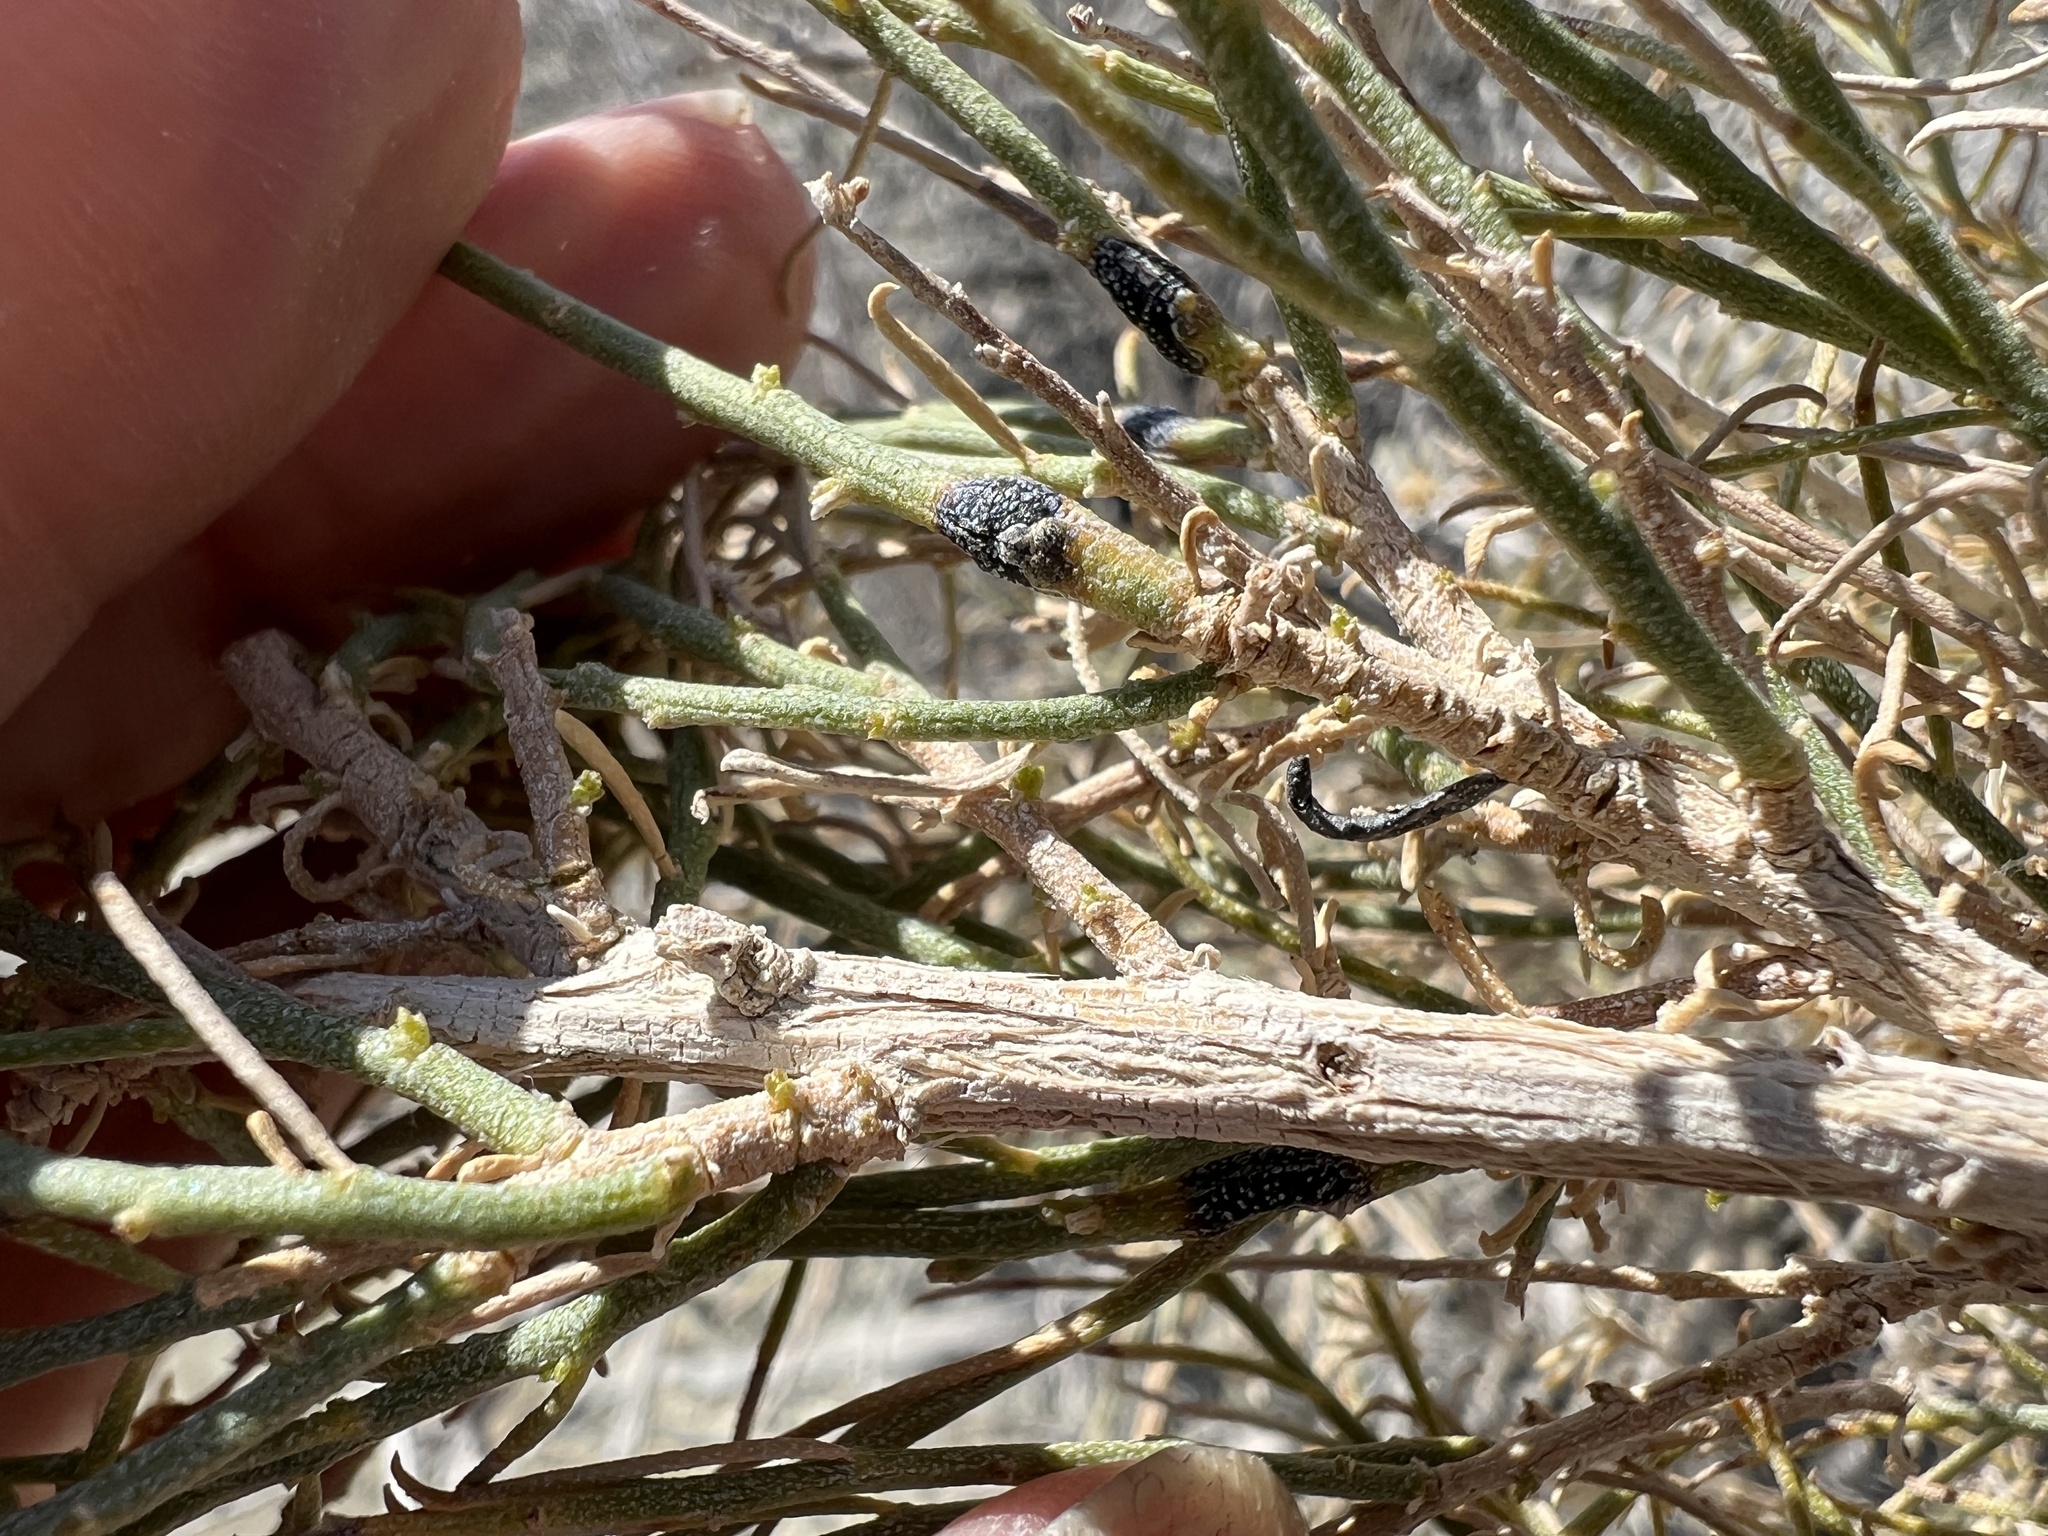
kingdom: Plantae
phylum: Tracheophyta
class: Magnoliopsida
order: Asterales
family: Asteraceae
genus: Ericameria
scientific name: Ericameria paniculata
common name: Punctate rabbitbrush
